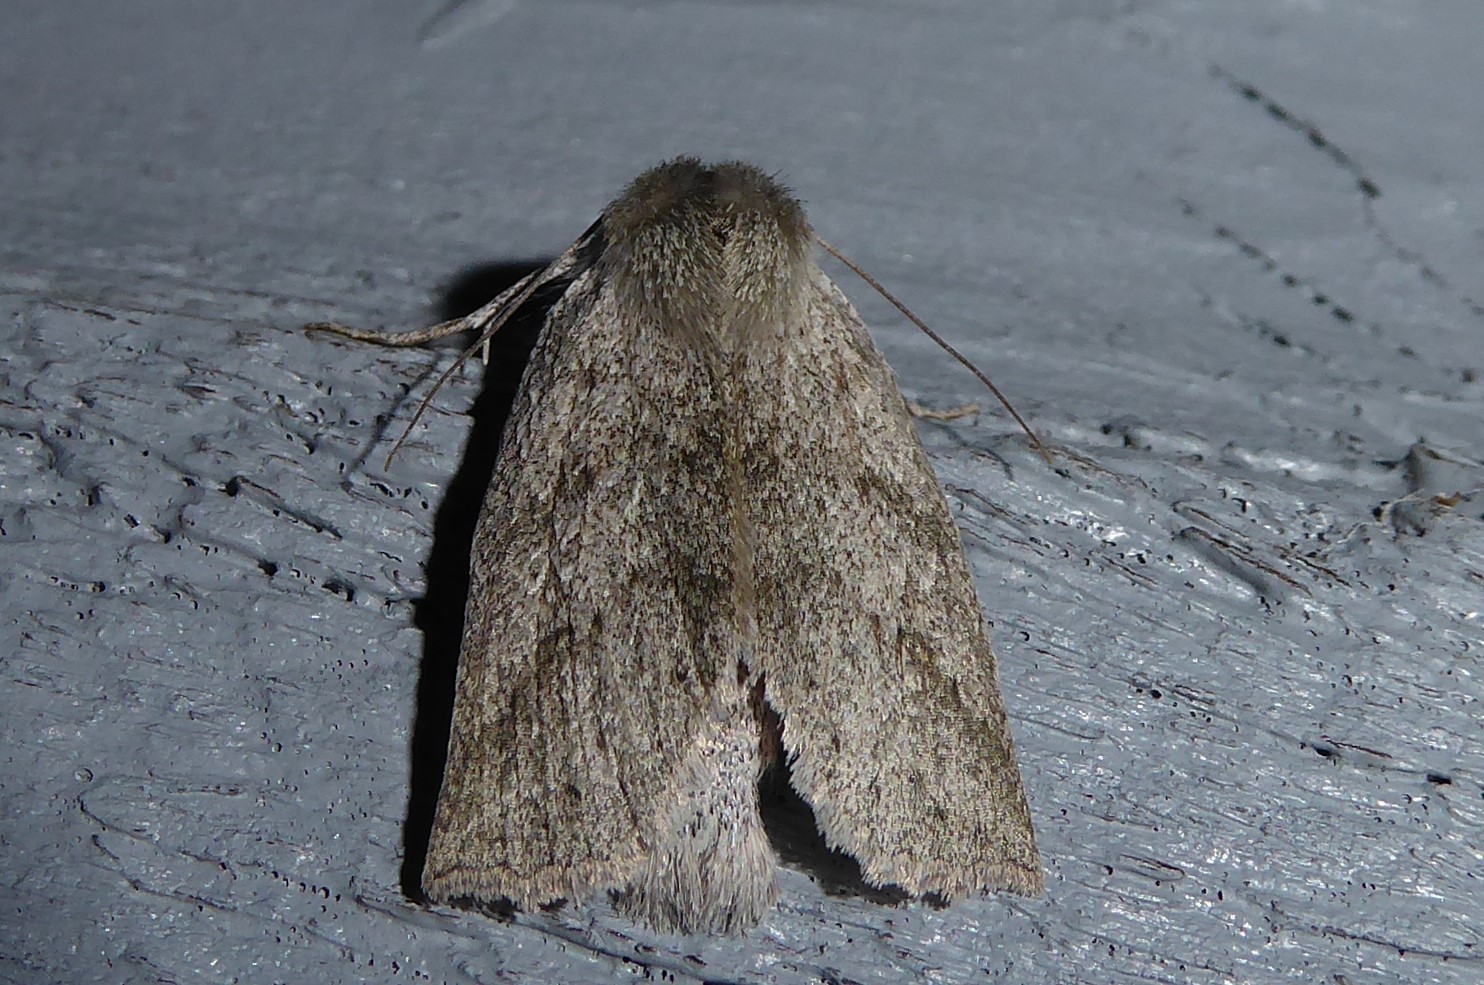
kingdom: Animalia
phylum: Arthropoda
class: Insecta
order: Lepidoptera
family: Geometridae
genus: Declana
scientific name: Declana leptomera
